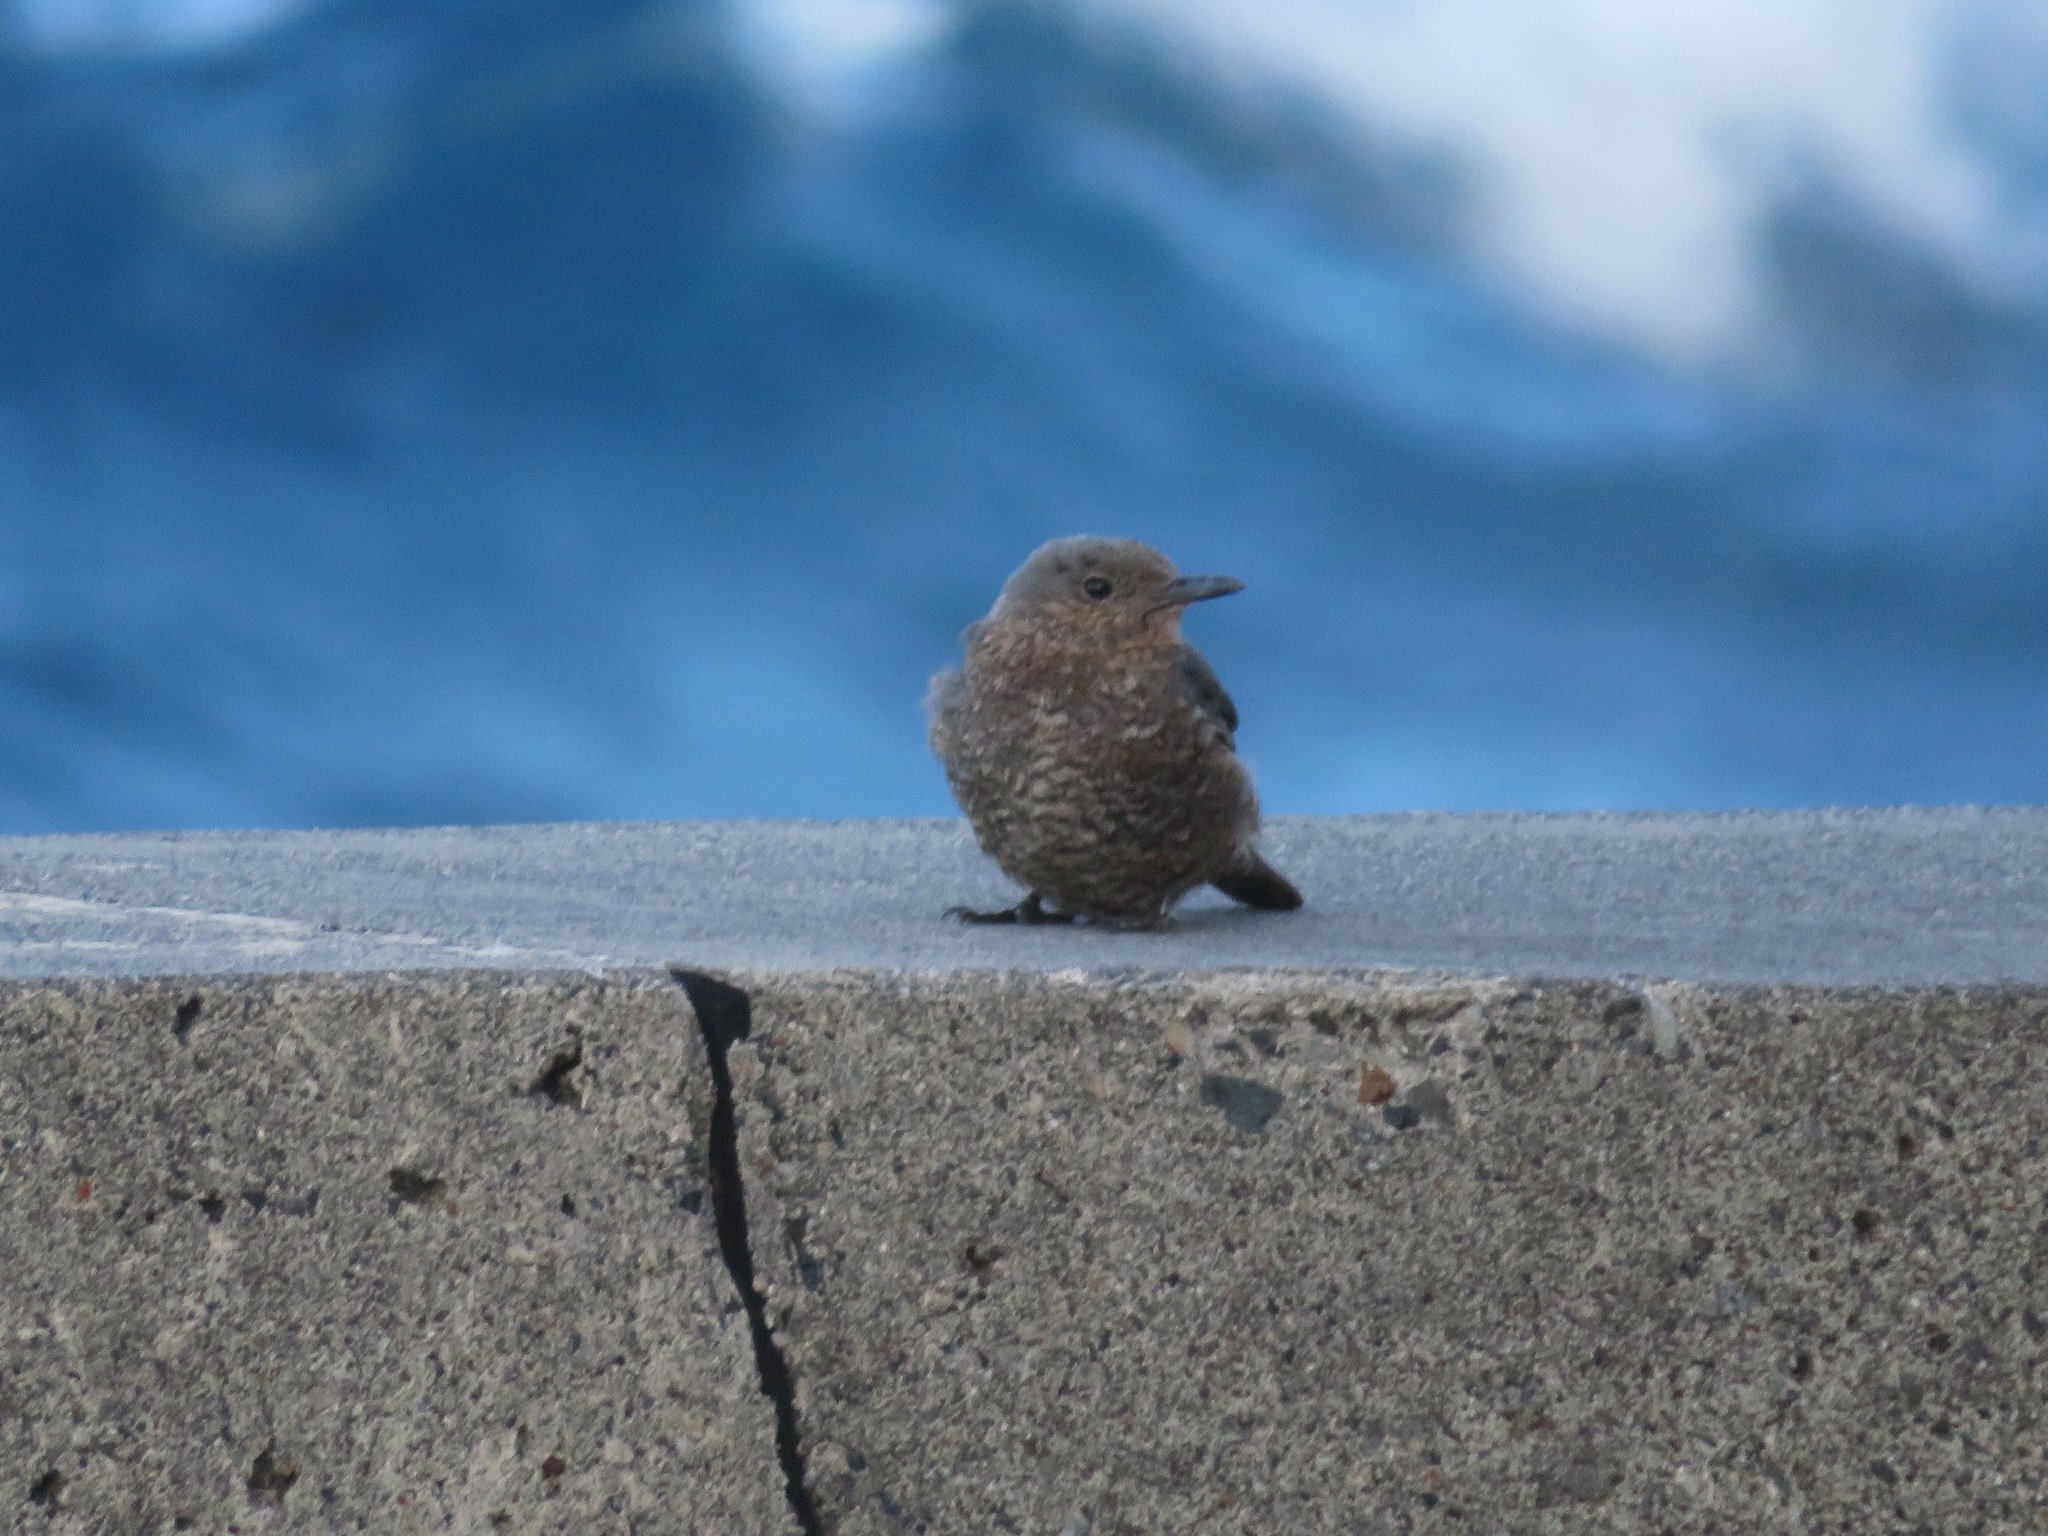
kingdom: Animalia
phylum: Chordata
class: Aves
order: Passeriformes
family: Muscicapidae
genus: Monticola
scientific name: Monticola solitarius
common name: Blue rock thrush
